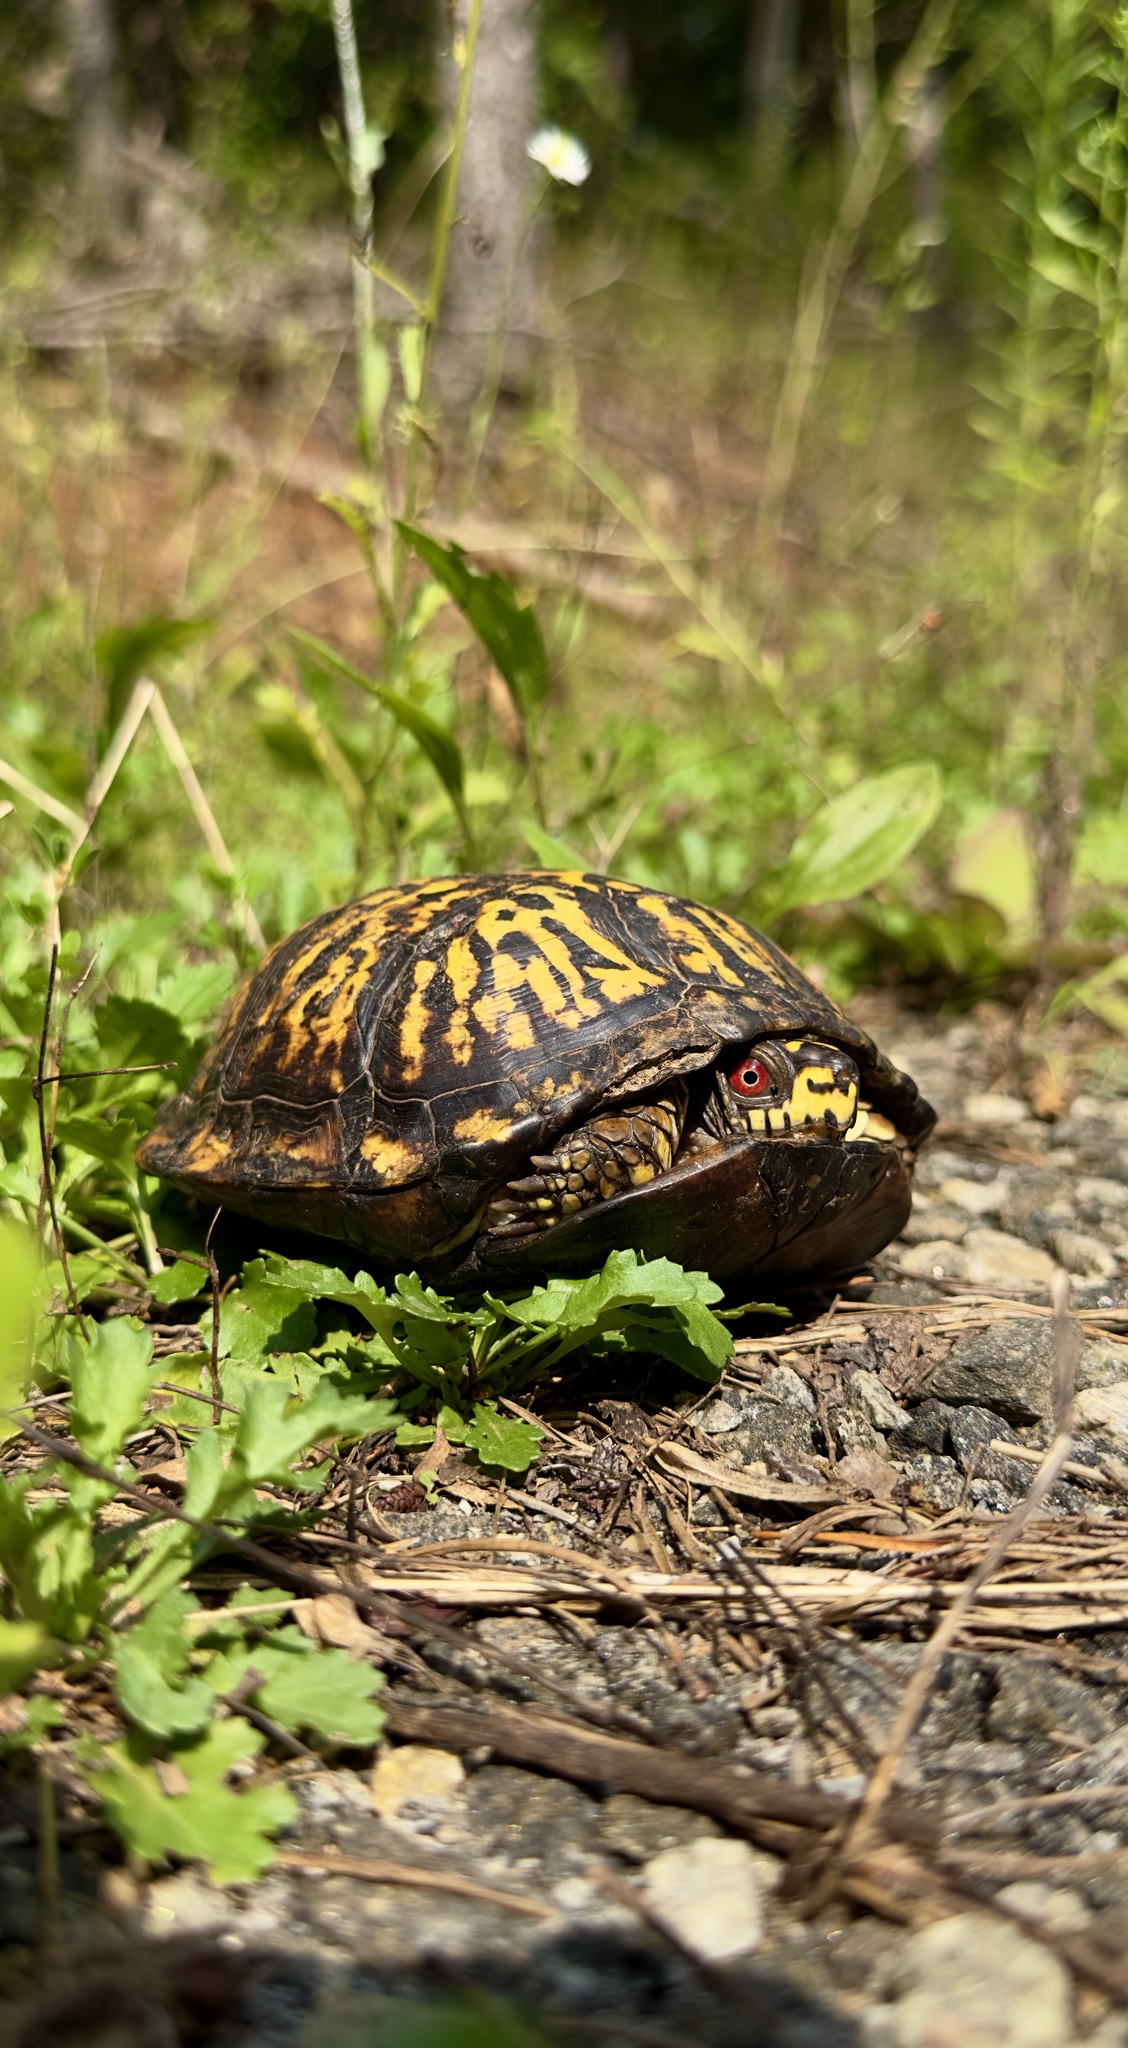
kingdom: Animalia
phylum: Chordata
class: Testudines
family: Emydidae
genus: Terrapene
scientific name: Terrapene carolina
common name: Common box turtle
